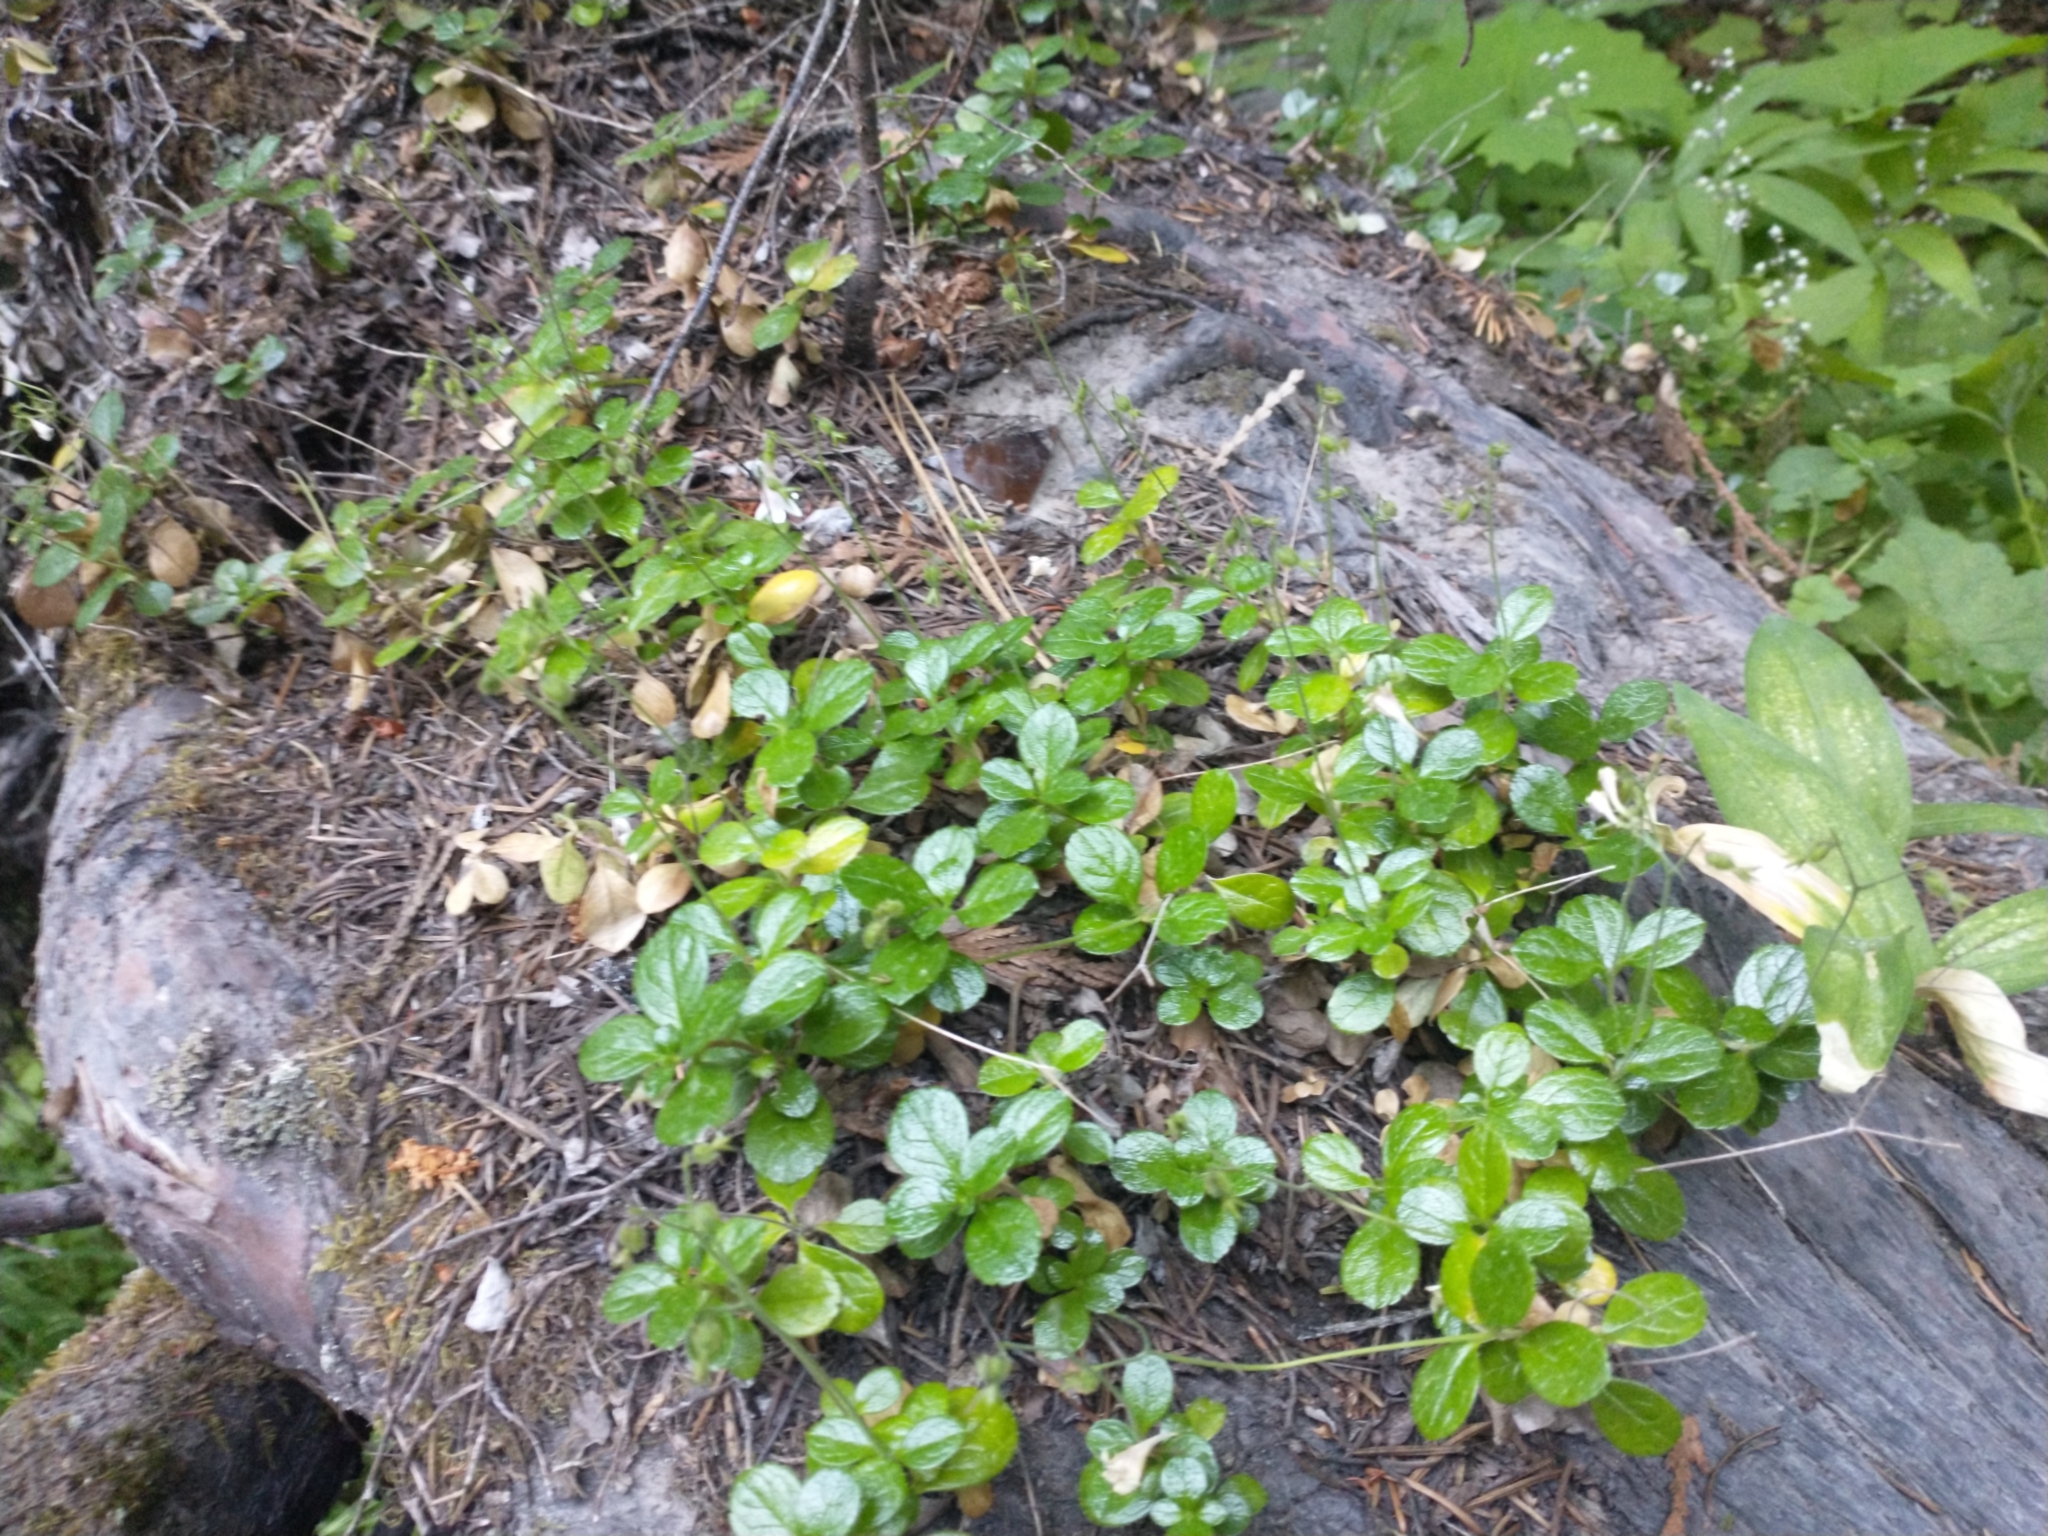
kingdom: Plantae
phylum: Tracheophyta
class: Magnoliopsida
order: Dipsacales
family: Caprifoliaceae
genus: Linnaea
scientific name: Linnaea borealis
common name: Twinflower
